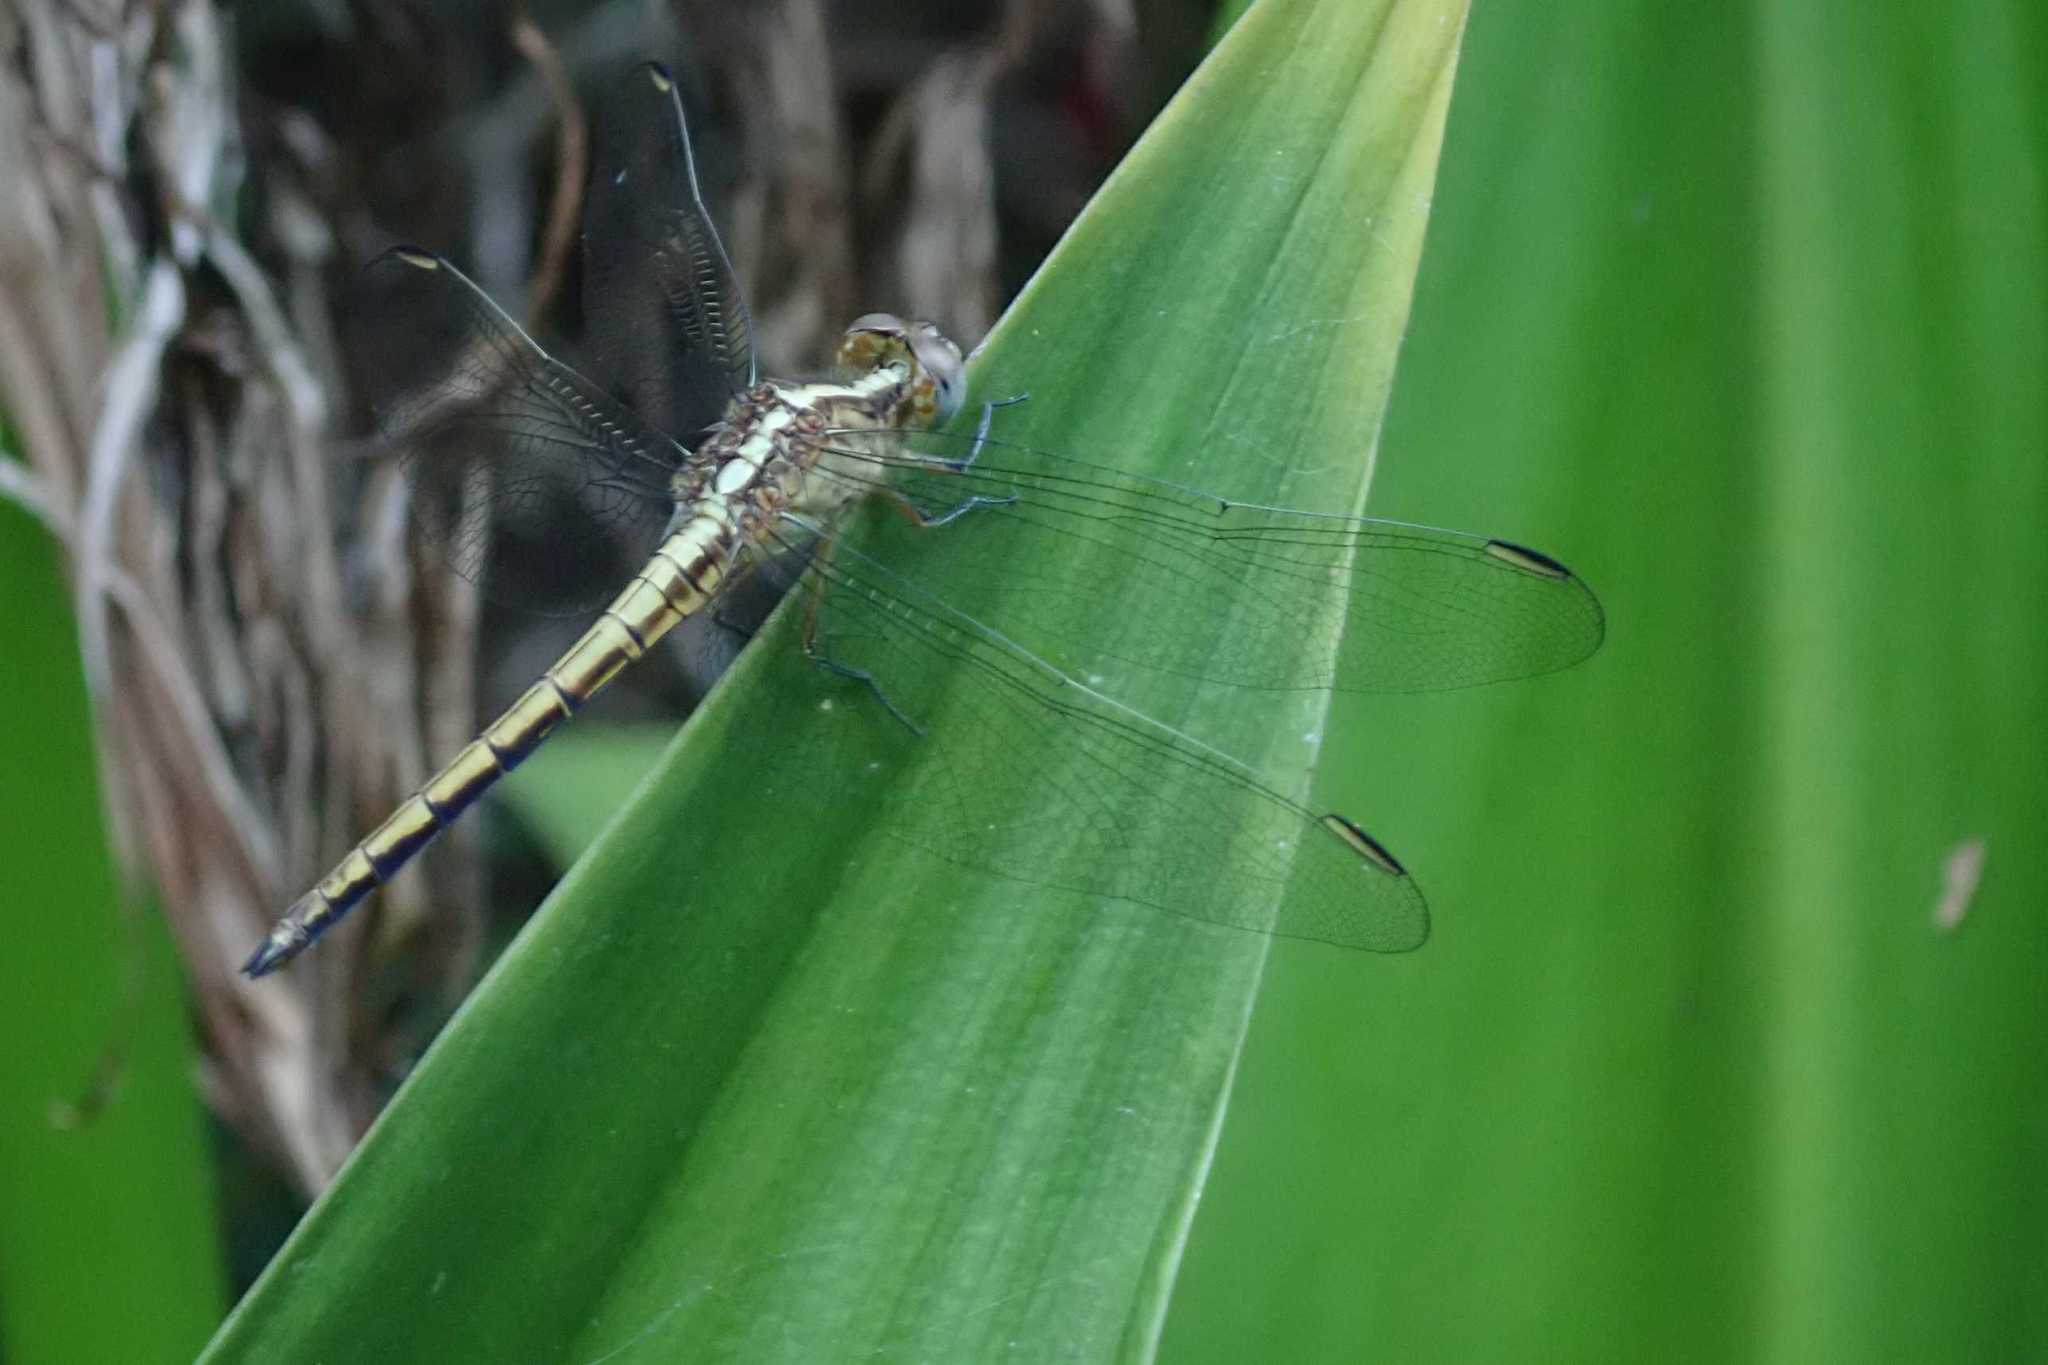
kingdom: Animalia
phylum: Arthropoda
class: Insecta
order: Odonata
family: Libellulidae
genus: Nesciothemis
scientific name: Nesciothemis farinosa
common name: Eastern blacktail
